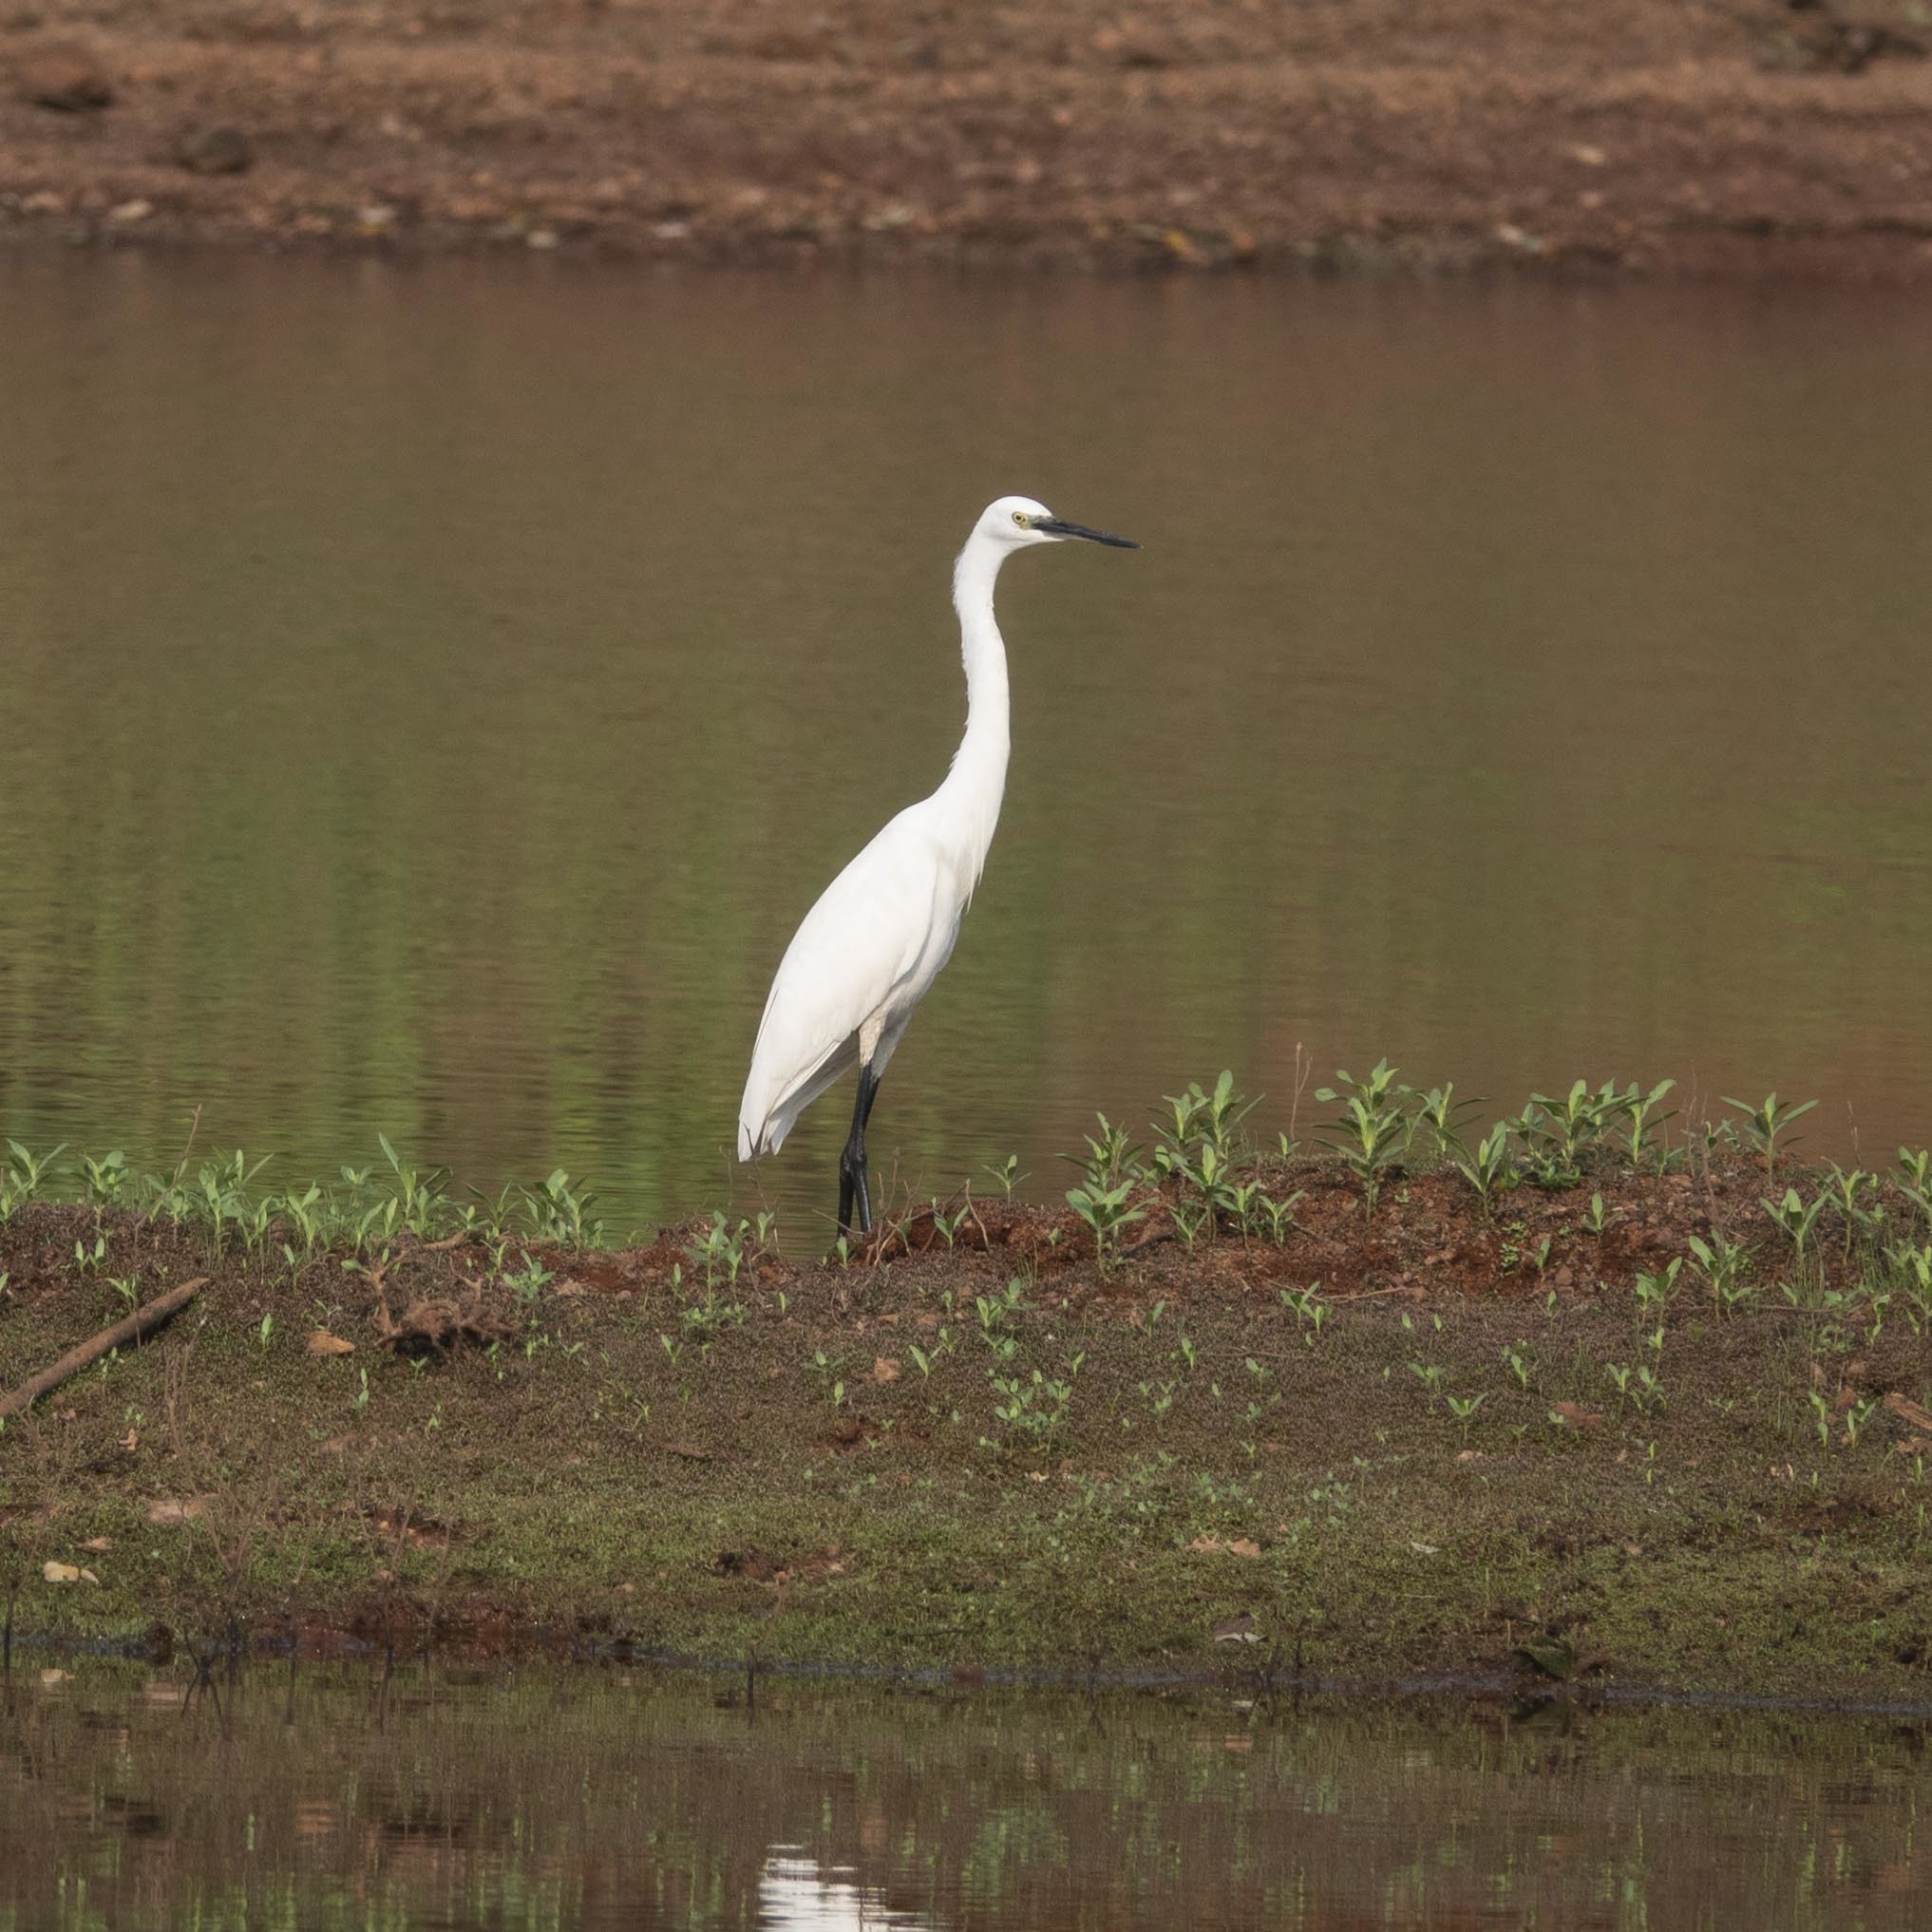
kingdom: Animalia
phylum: Chordata
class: Aves
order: Pelecaniformes
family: Ardeidae
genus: Egretta
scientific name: Egretta garzetta
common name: Little egret
